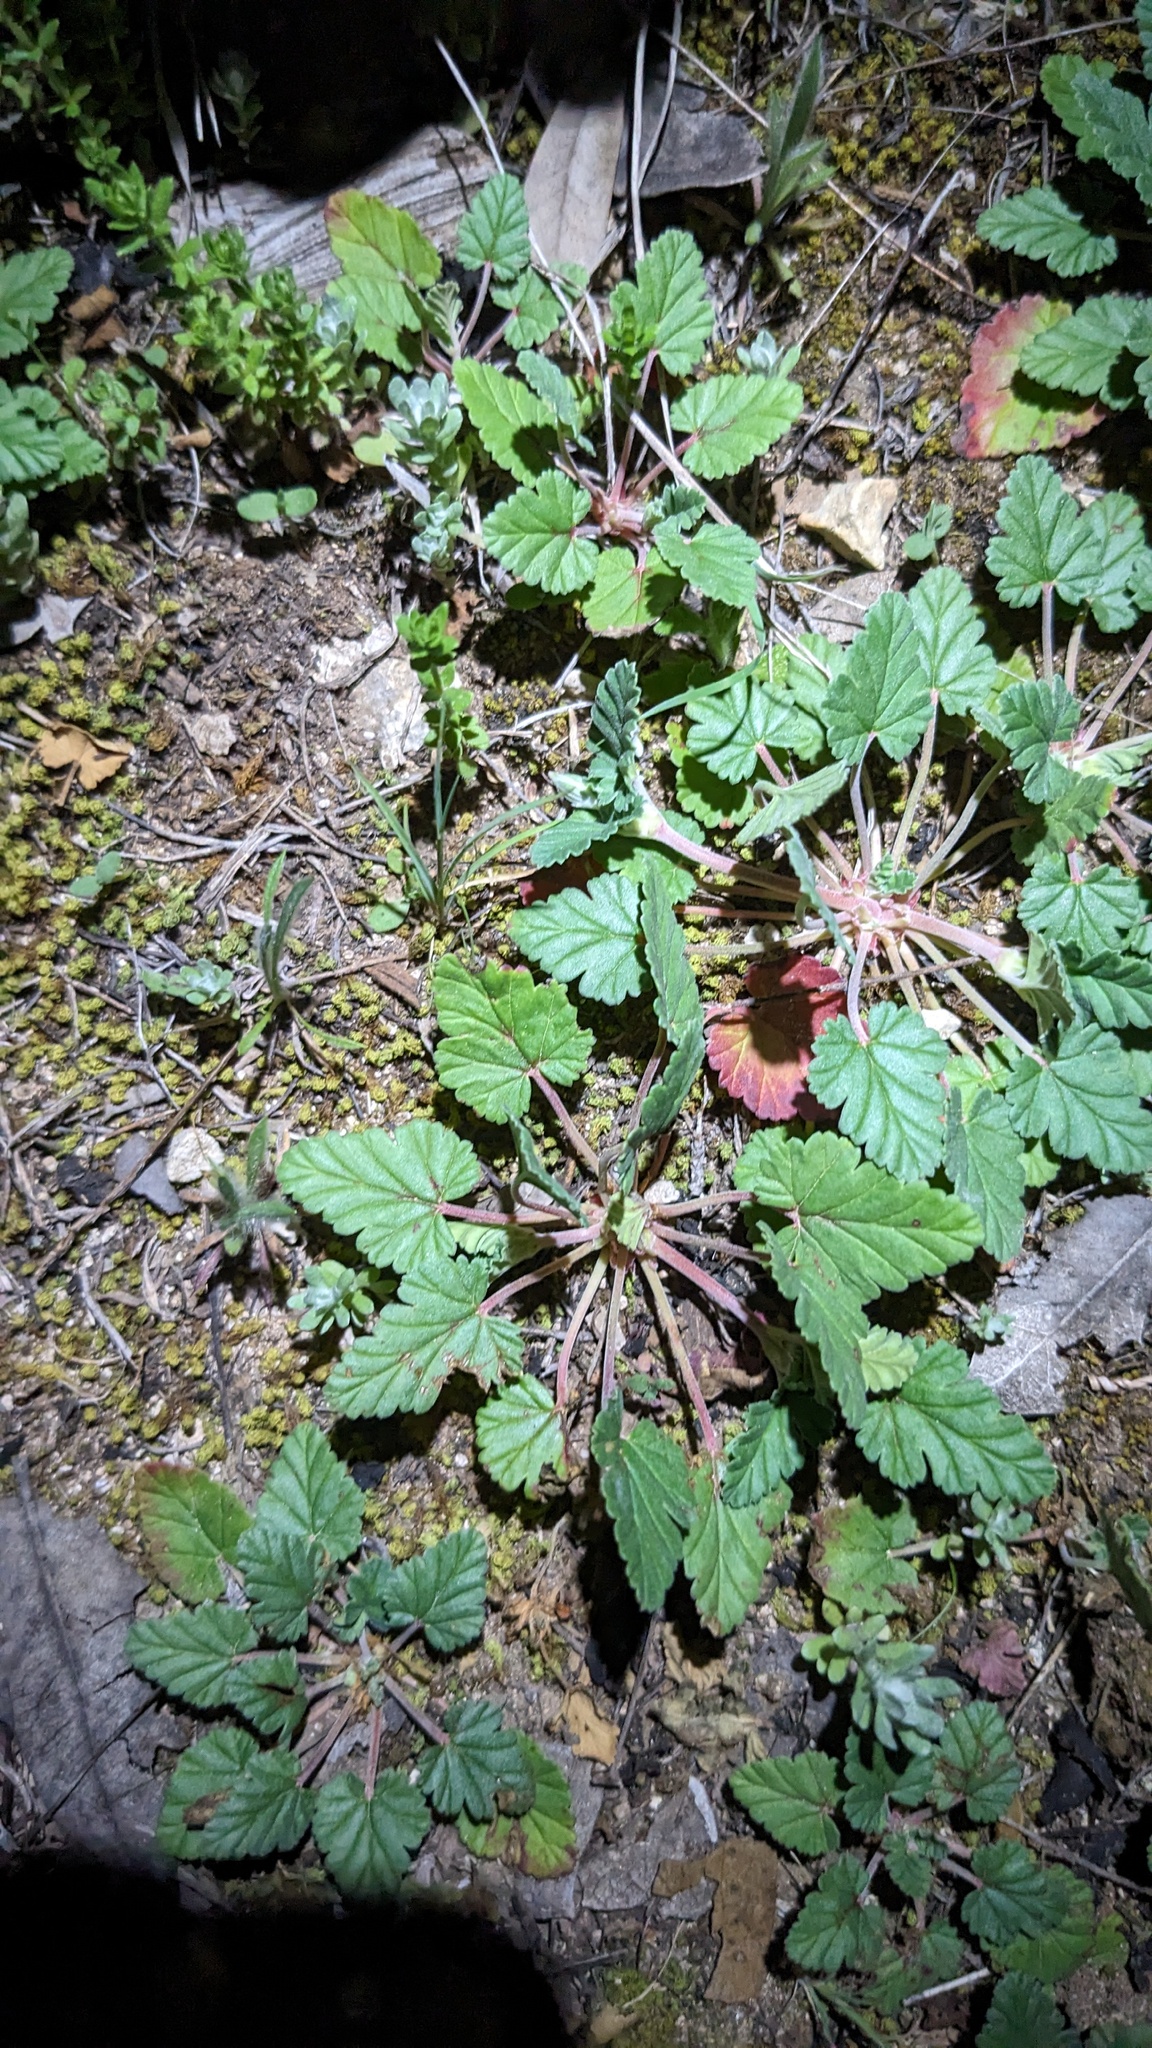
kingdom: Plantae
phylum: Tracheophyta
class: Magnoliopsida
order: Geraniales
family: Geraniaceae
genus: Erodium
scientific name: Erodium texanum
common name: Texas stork's-bill
